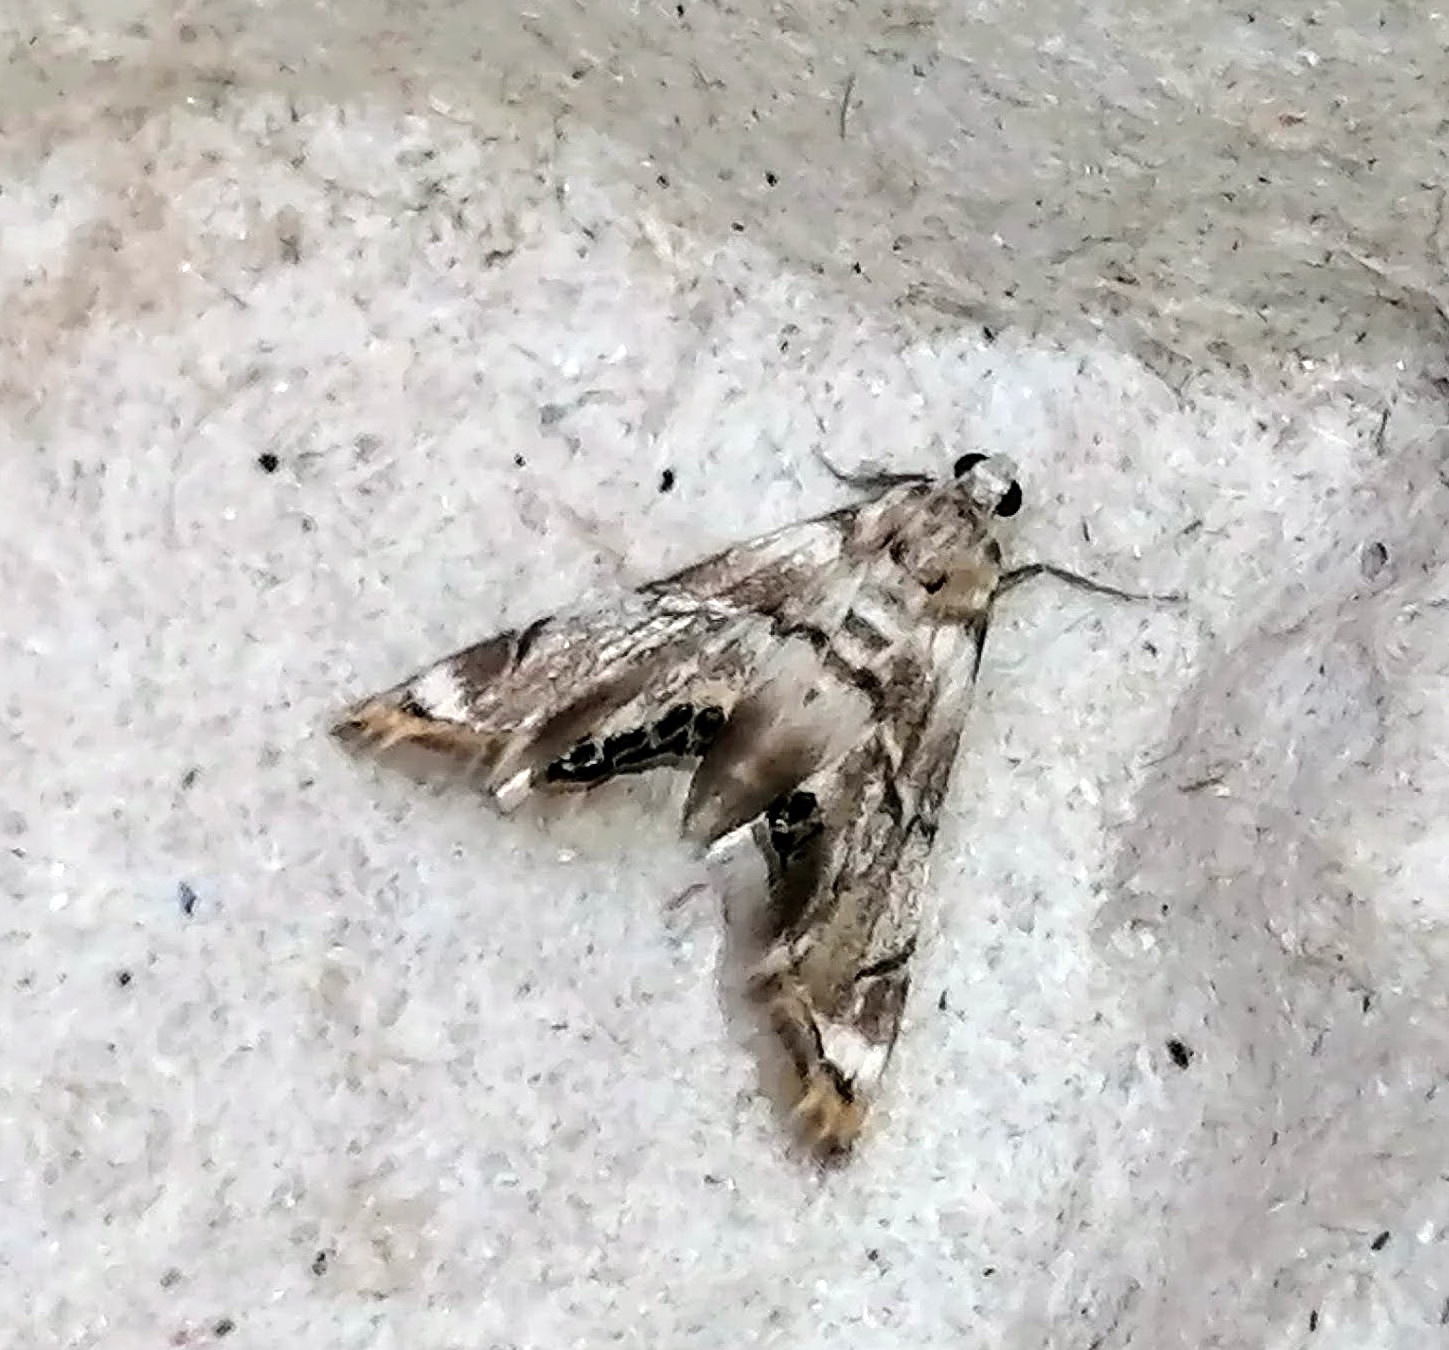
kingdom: Animalia
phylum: Arthropoda
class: Insecta
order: Lepidoptera
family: Crambidae
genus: Eoparargyractis
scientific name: Eoparargyractis plevie
